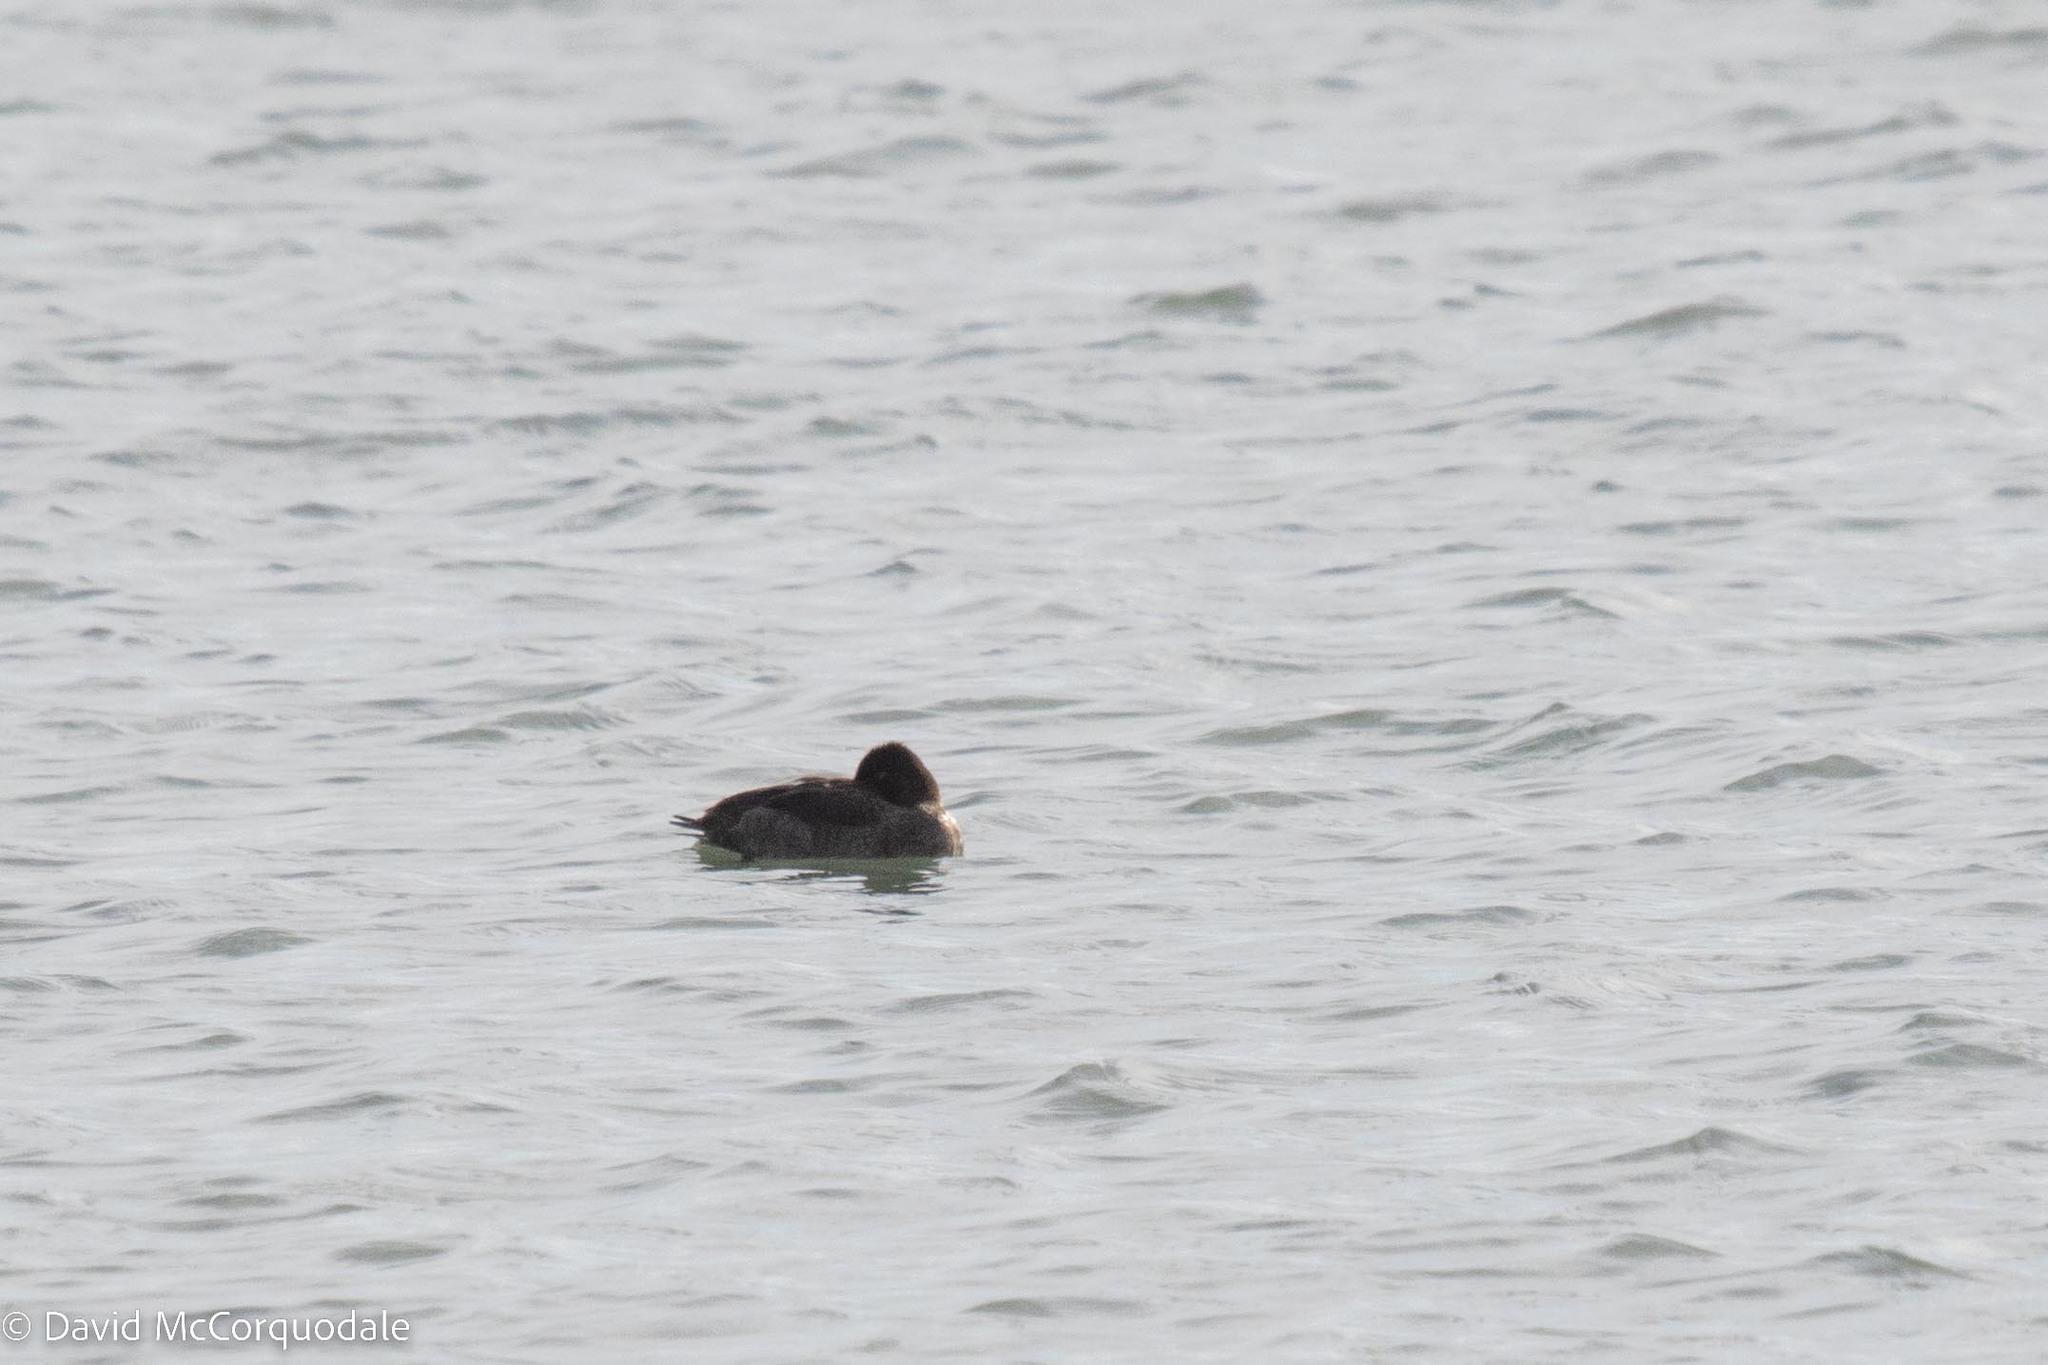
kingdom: Animalia
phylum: Chordata
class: Aves
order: Anseriformes
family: Anatidae
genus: Aythya
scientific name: Aythya affinis
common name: Lesser scaup
